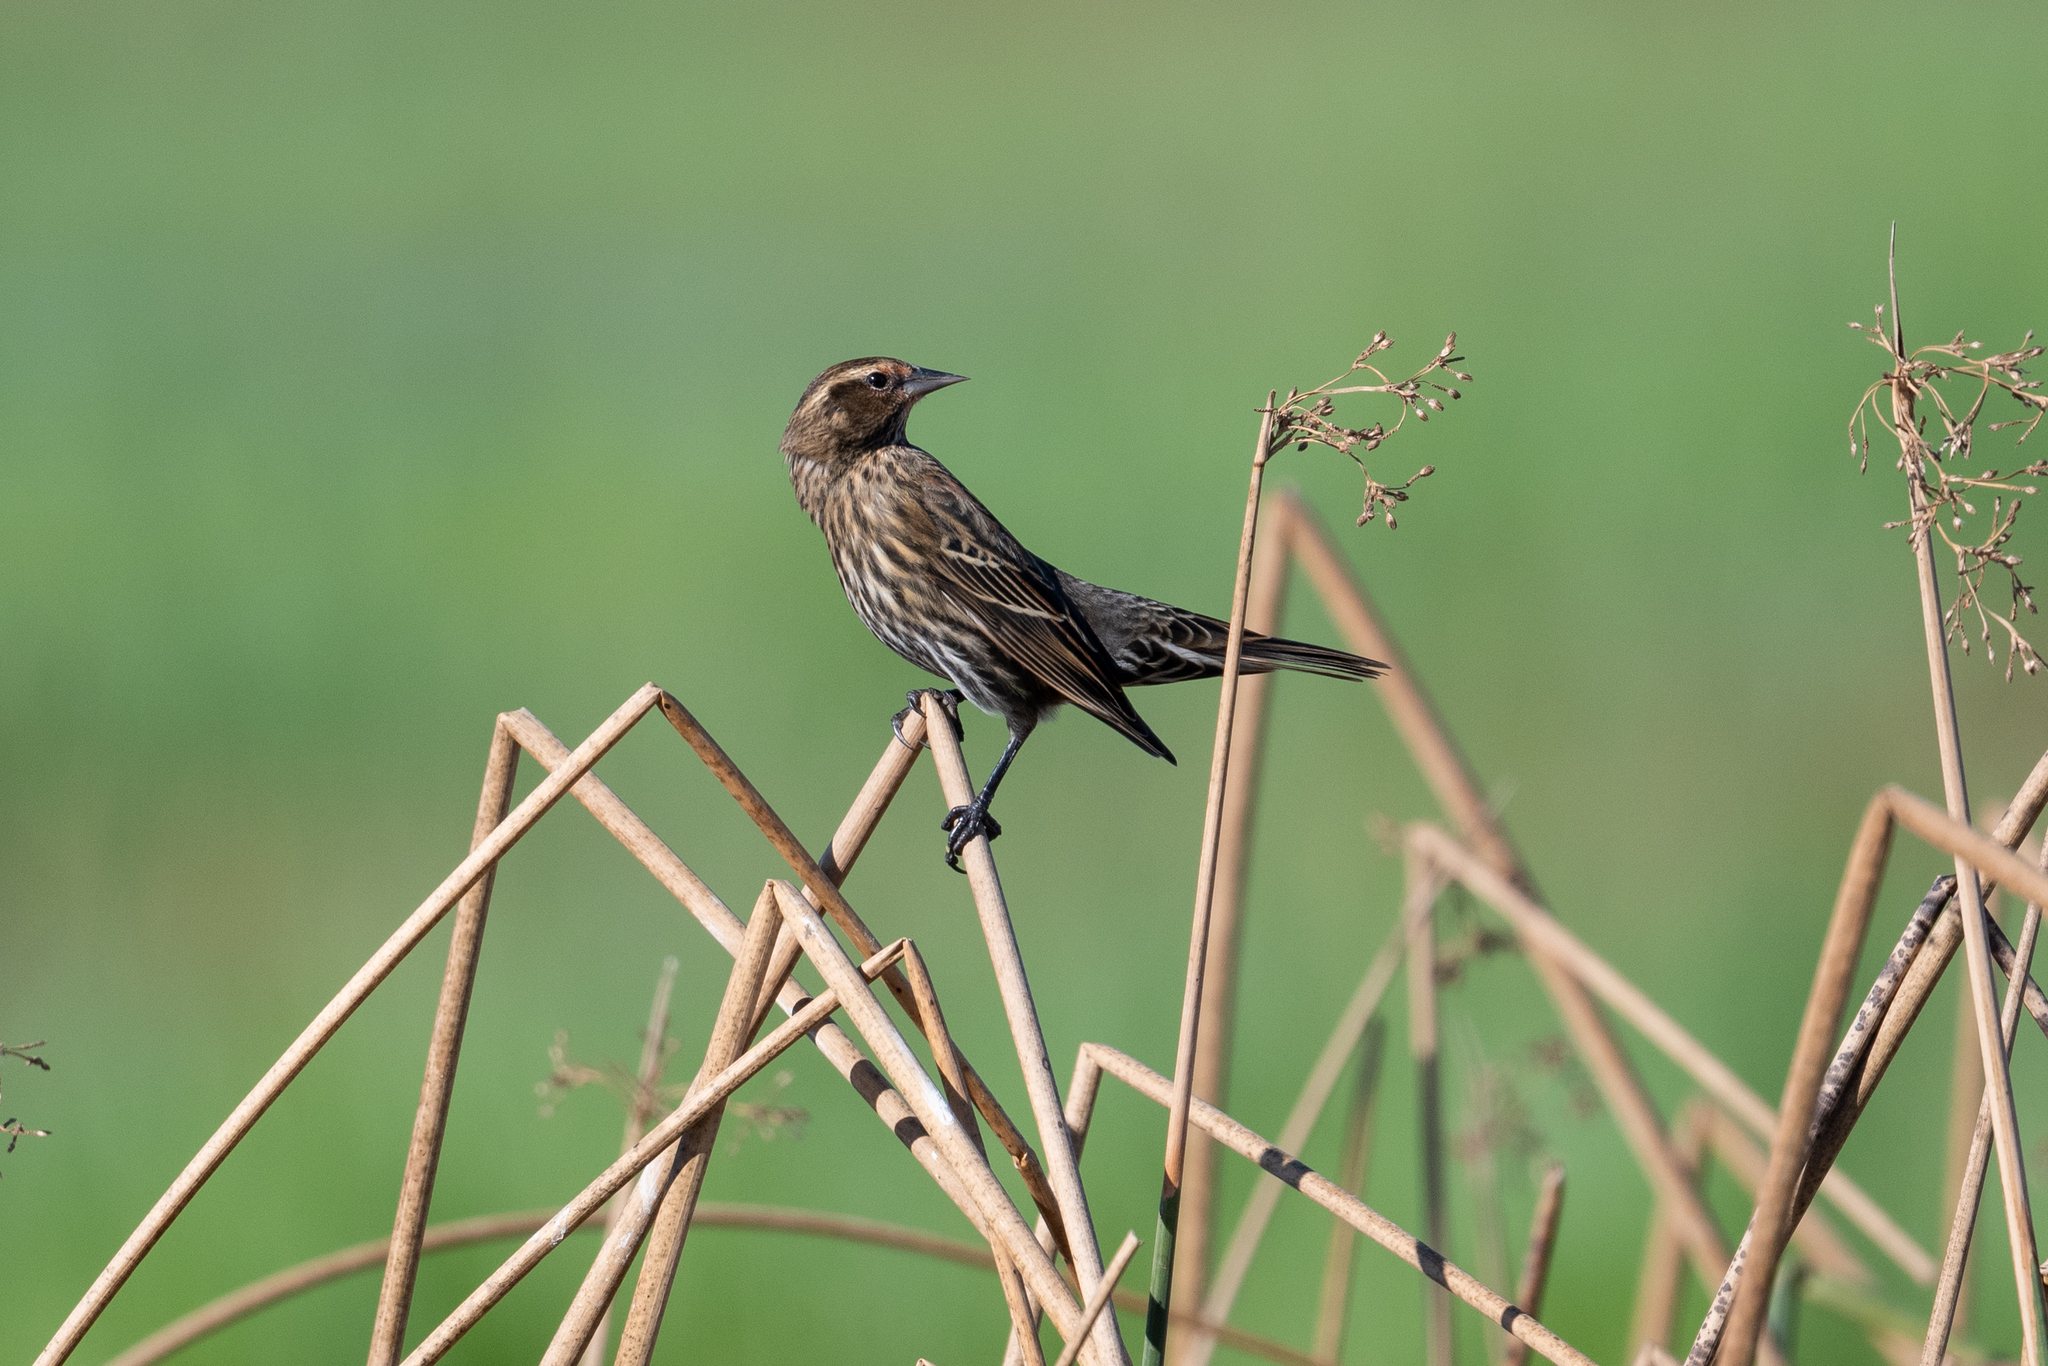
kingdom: Animalia
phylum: Chordata
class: Aves
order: Passeriformes
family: Icteridae
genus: Agelaius
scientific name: Agelaius phoeniceus
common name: Red-winged blackbird
